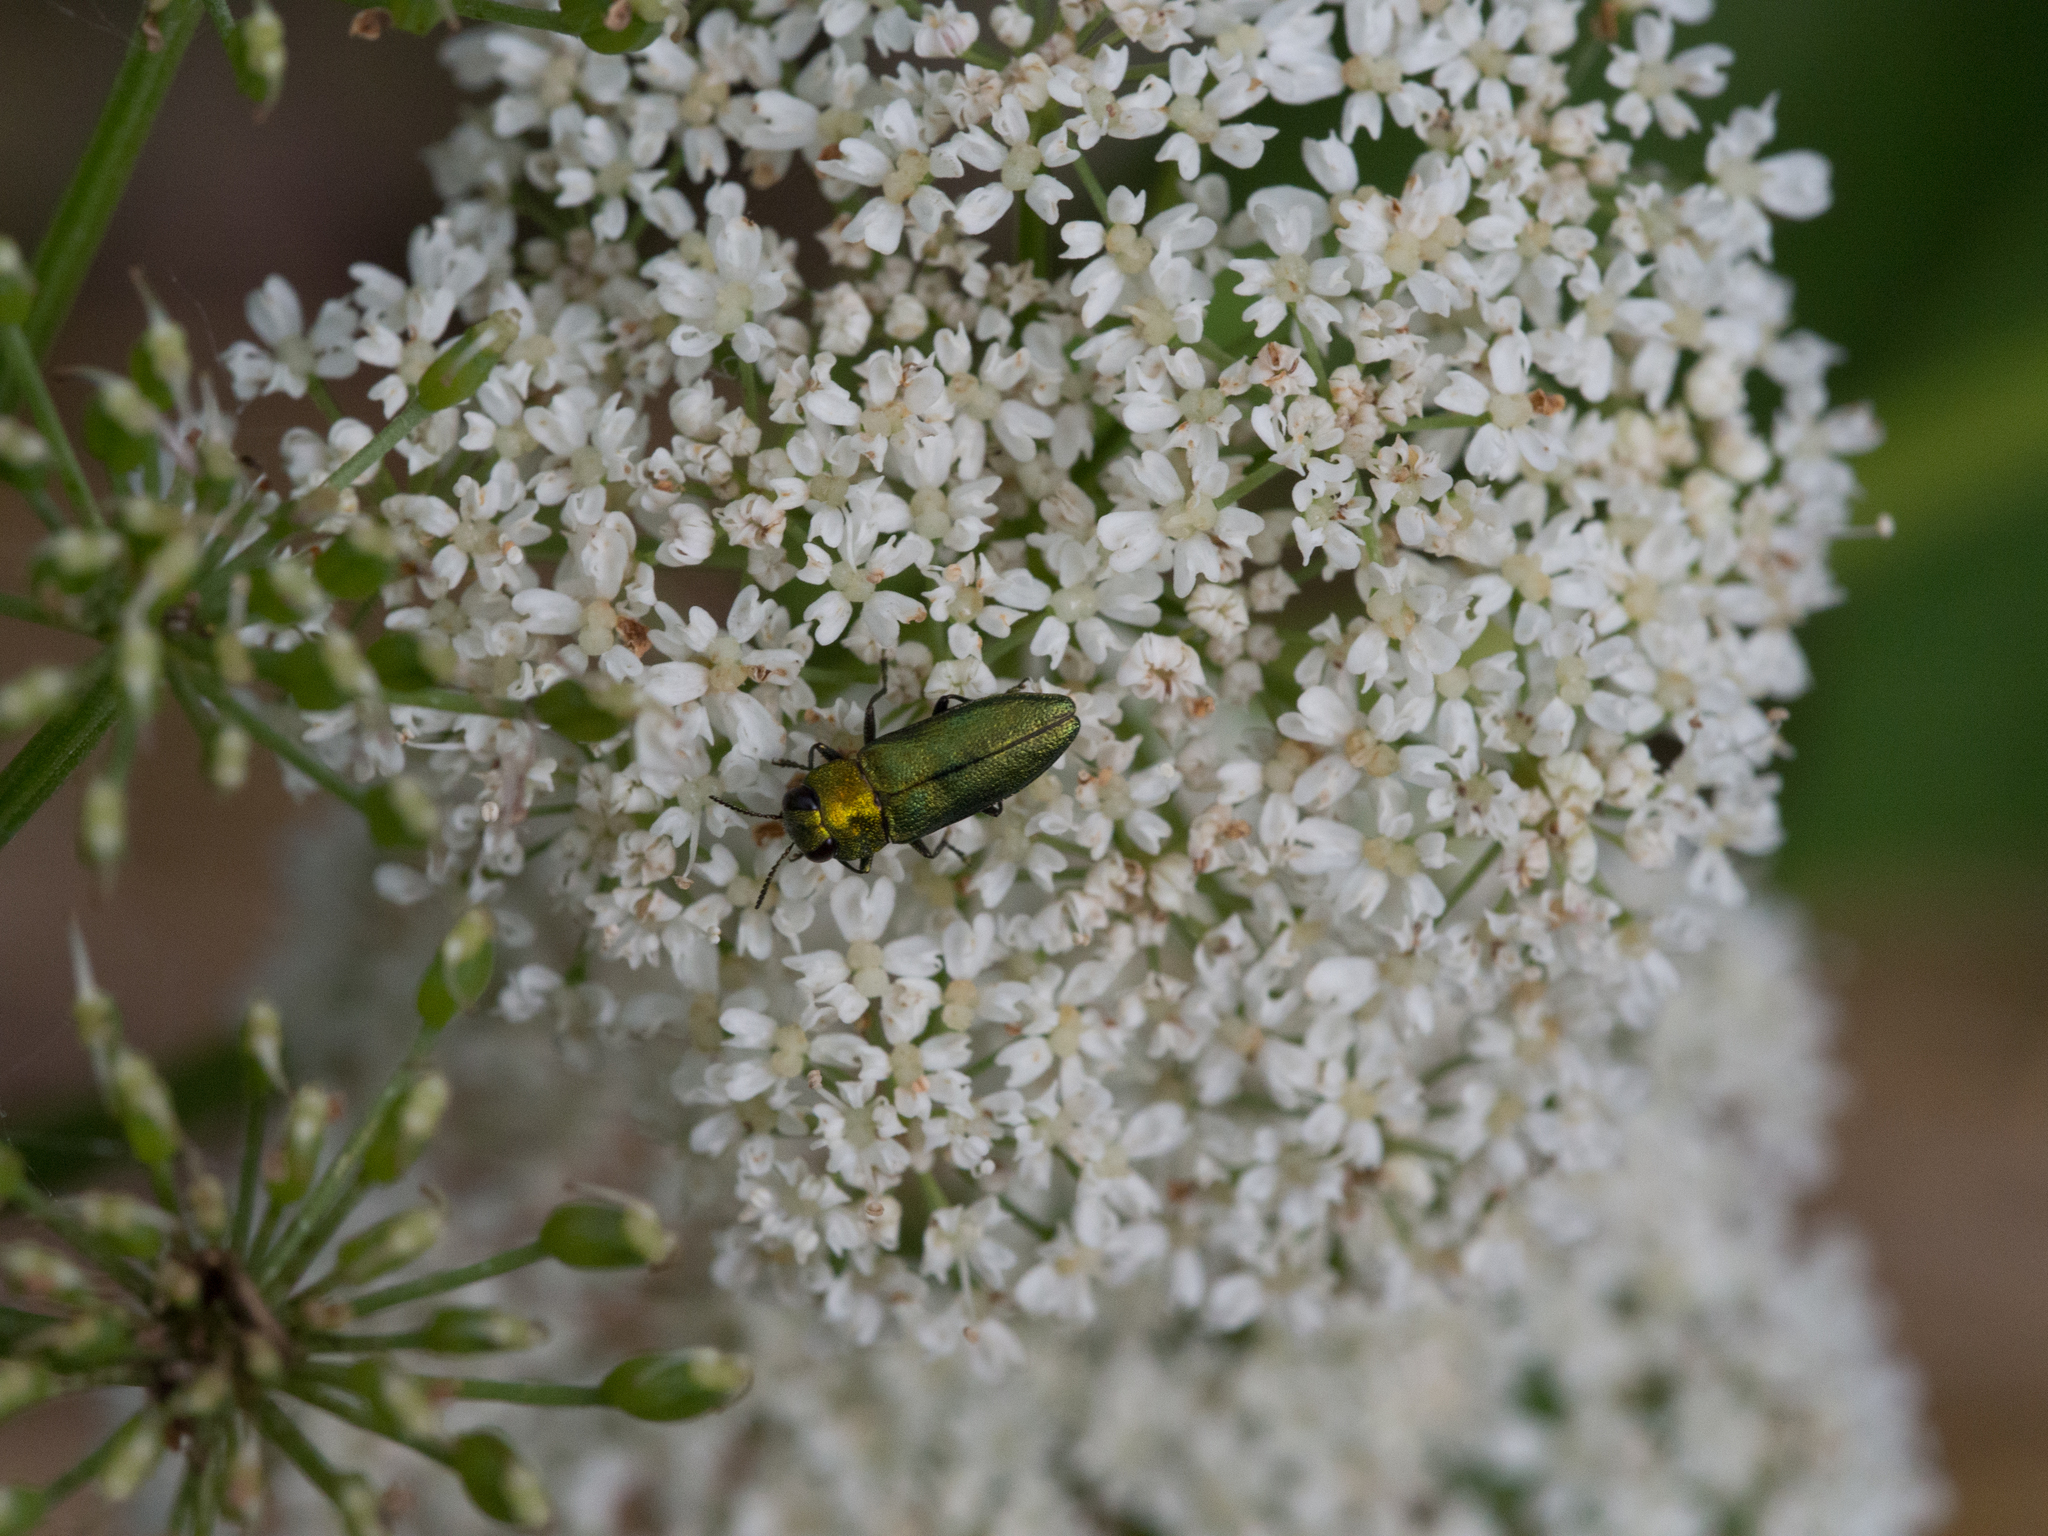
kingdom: Animalia
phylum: Arthropoda
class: Insecta
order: Coleoptera
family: Buprestidae
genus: Anthaxia
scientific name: Anthaxia nitidula
